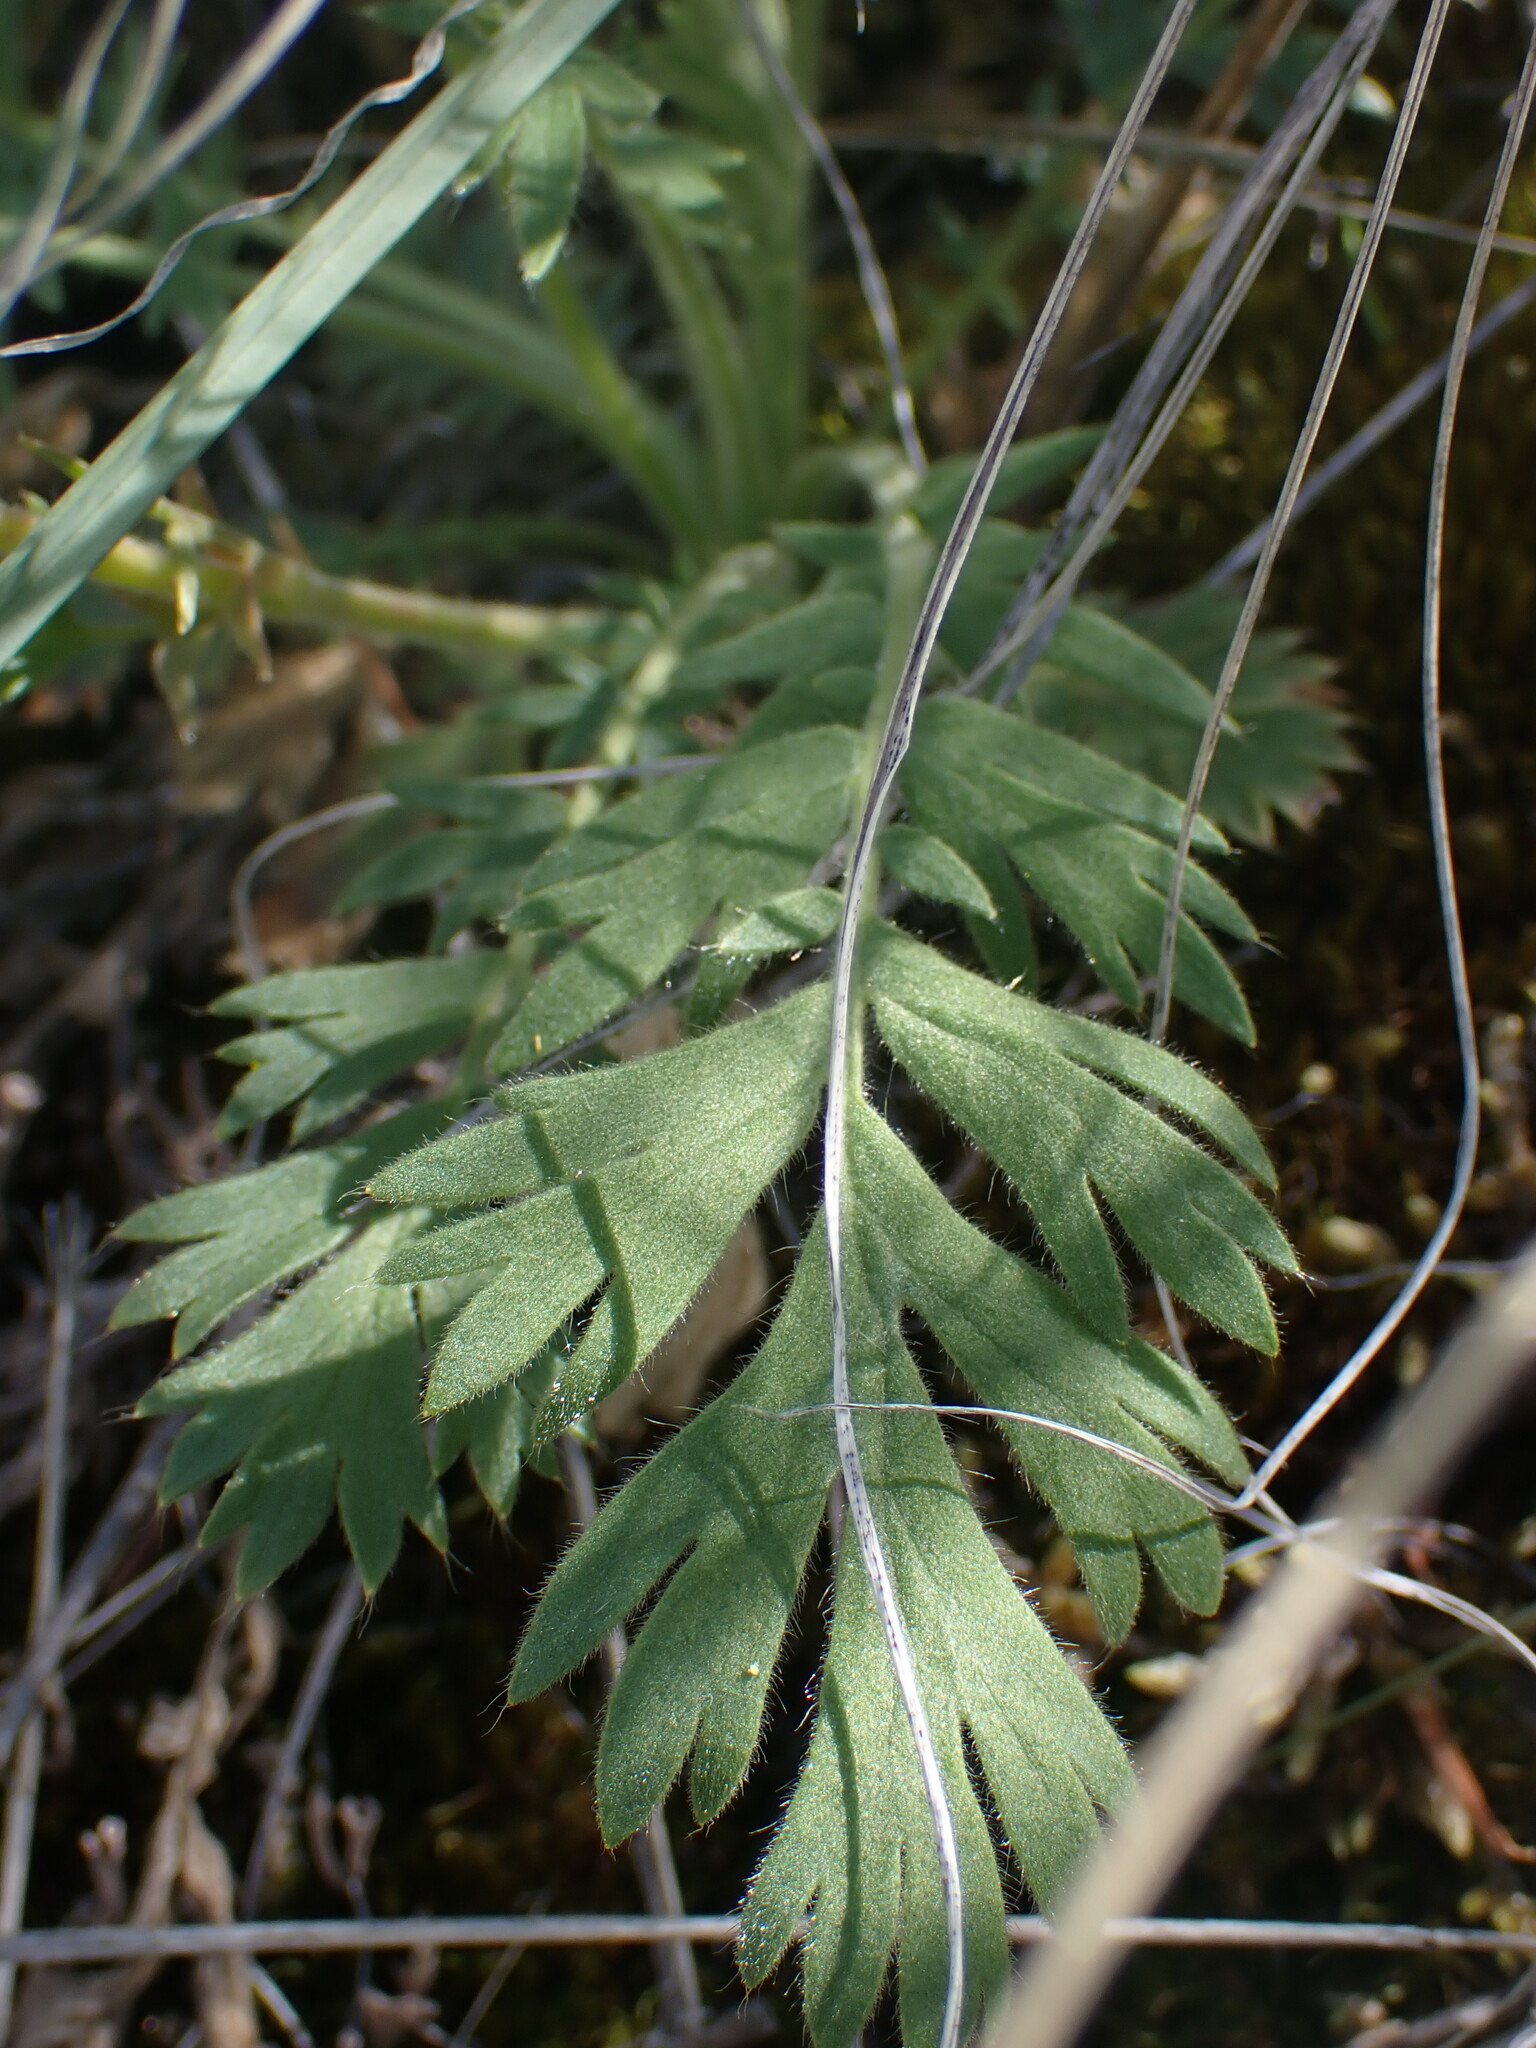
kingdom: Plantae
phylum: Tracheophyta
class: Magnoliopsida
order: Rosales
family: Rosaceae
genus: Geum
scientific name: Geum triflorum
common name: Old man's whiskers
